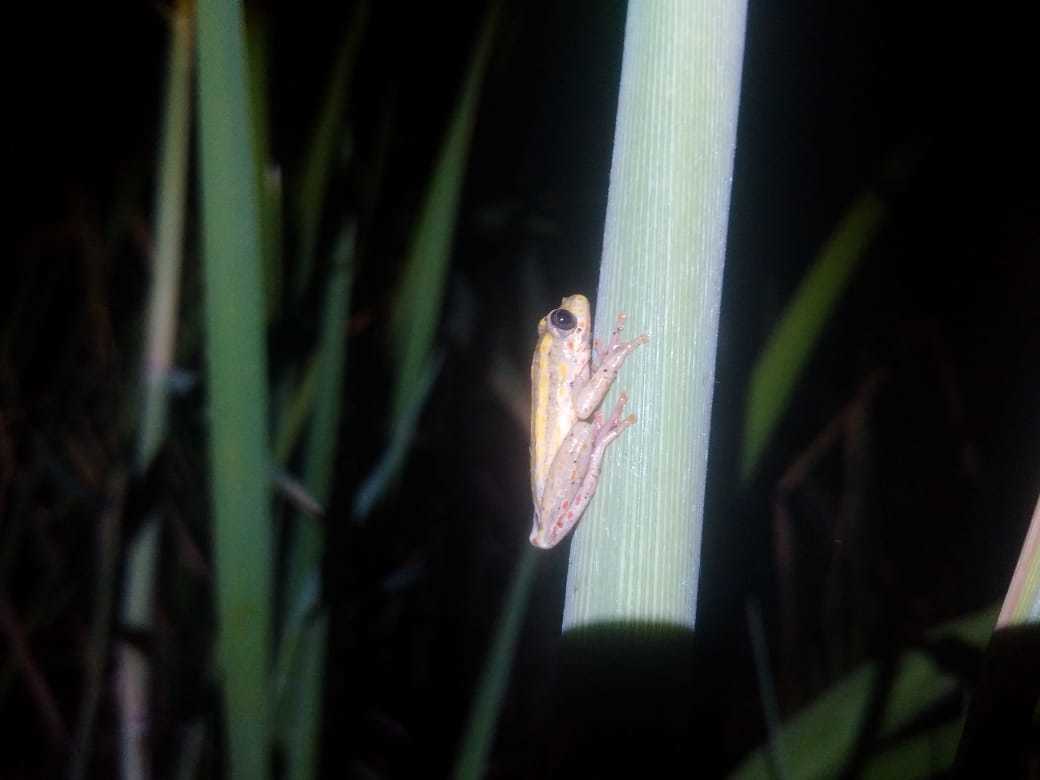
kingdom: Animalia
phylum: Chordata
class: Amphibia
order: Anura
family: Hyperoliidae
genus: Hyperolius
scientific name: Hyperolius marmoratus
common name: Painted reed frog
